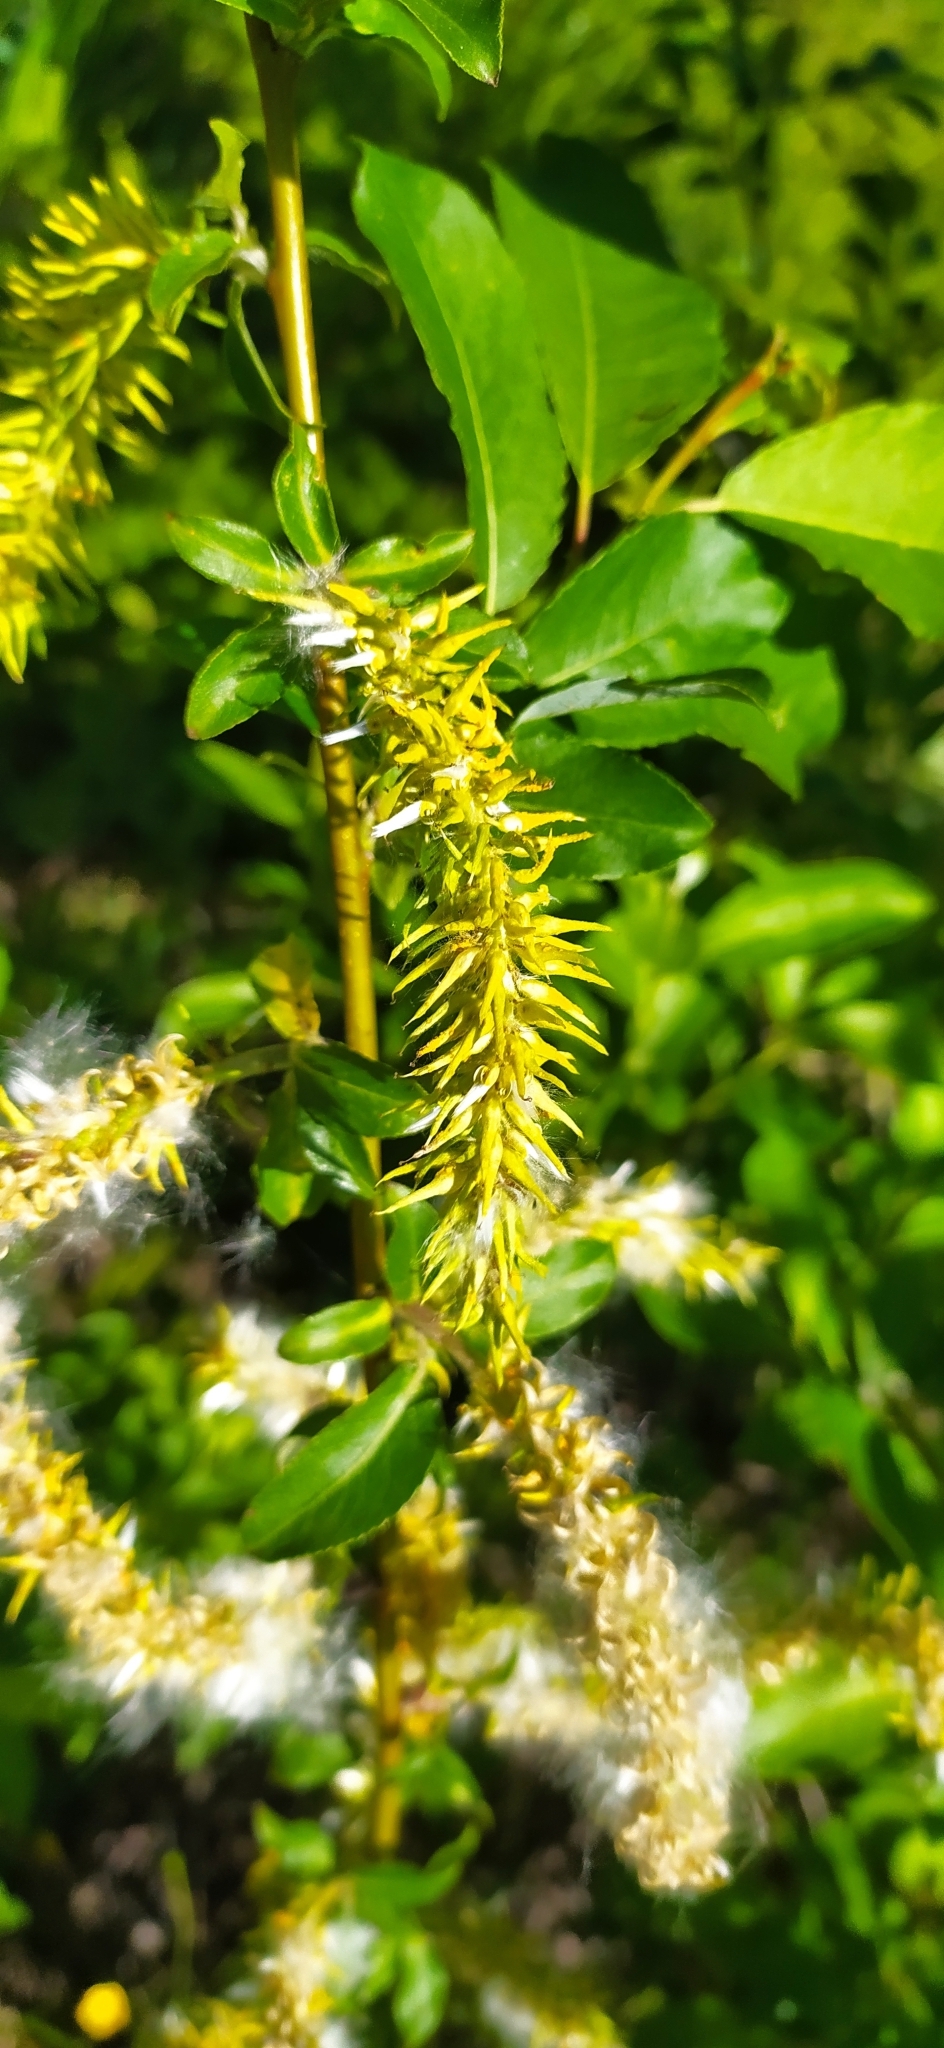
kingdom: Plantae
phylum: Tracheophyta
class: Magnoliopsida
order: Malpighiales
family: Salicaceae
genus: Salix
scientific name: Salix bebbiana
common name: Bebb's willow
